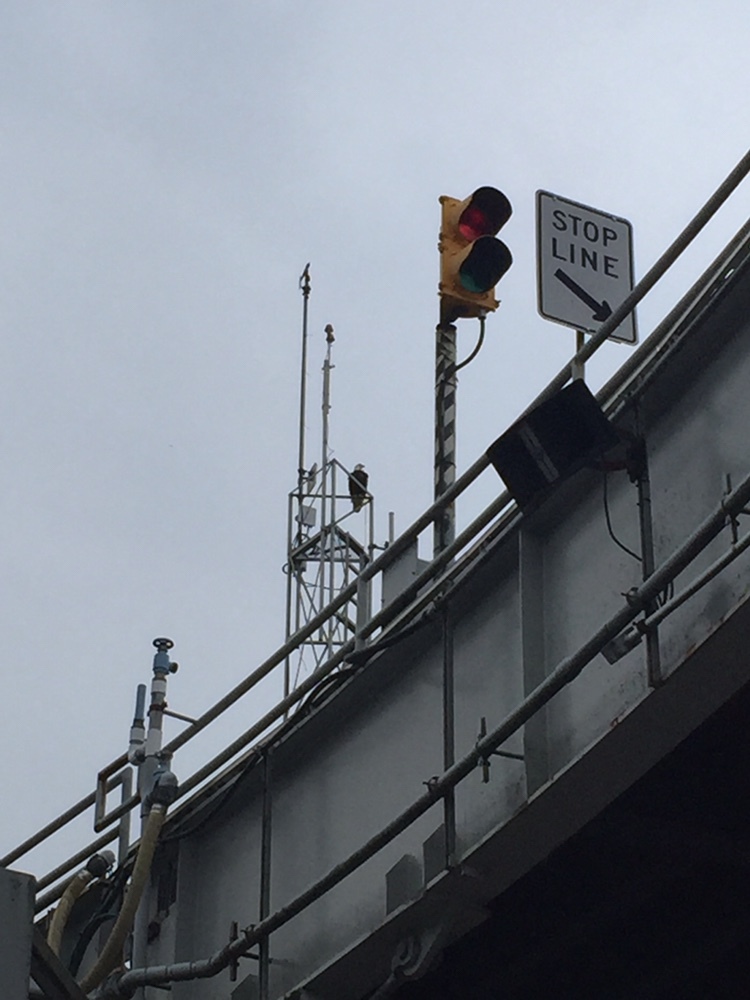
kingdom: Animalia
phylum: Chordata
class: Aves
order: Accipitriformes
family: Accipitridae
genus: Haliaeetus
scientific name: Haliaeetus leucocephalus
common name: Bald eagle
